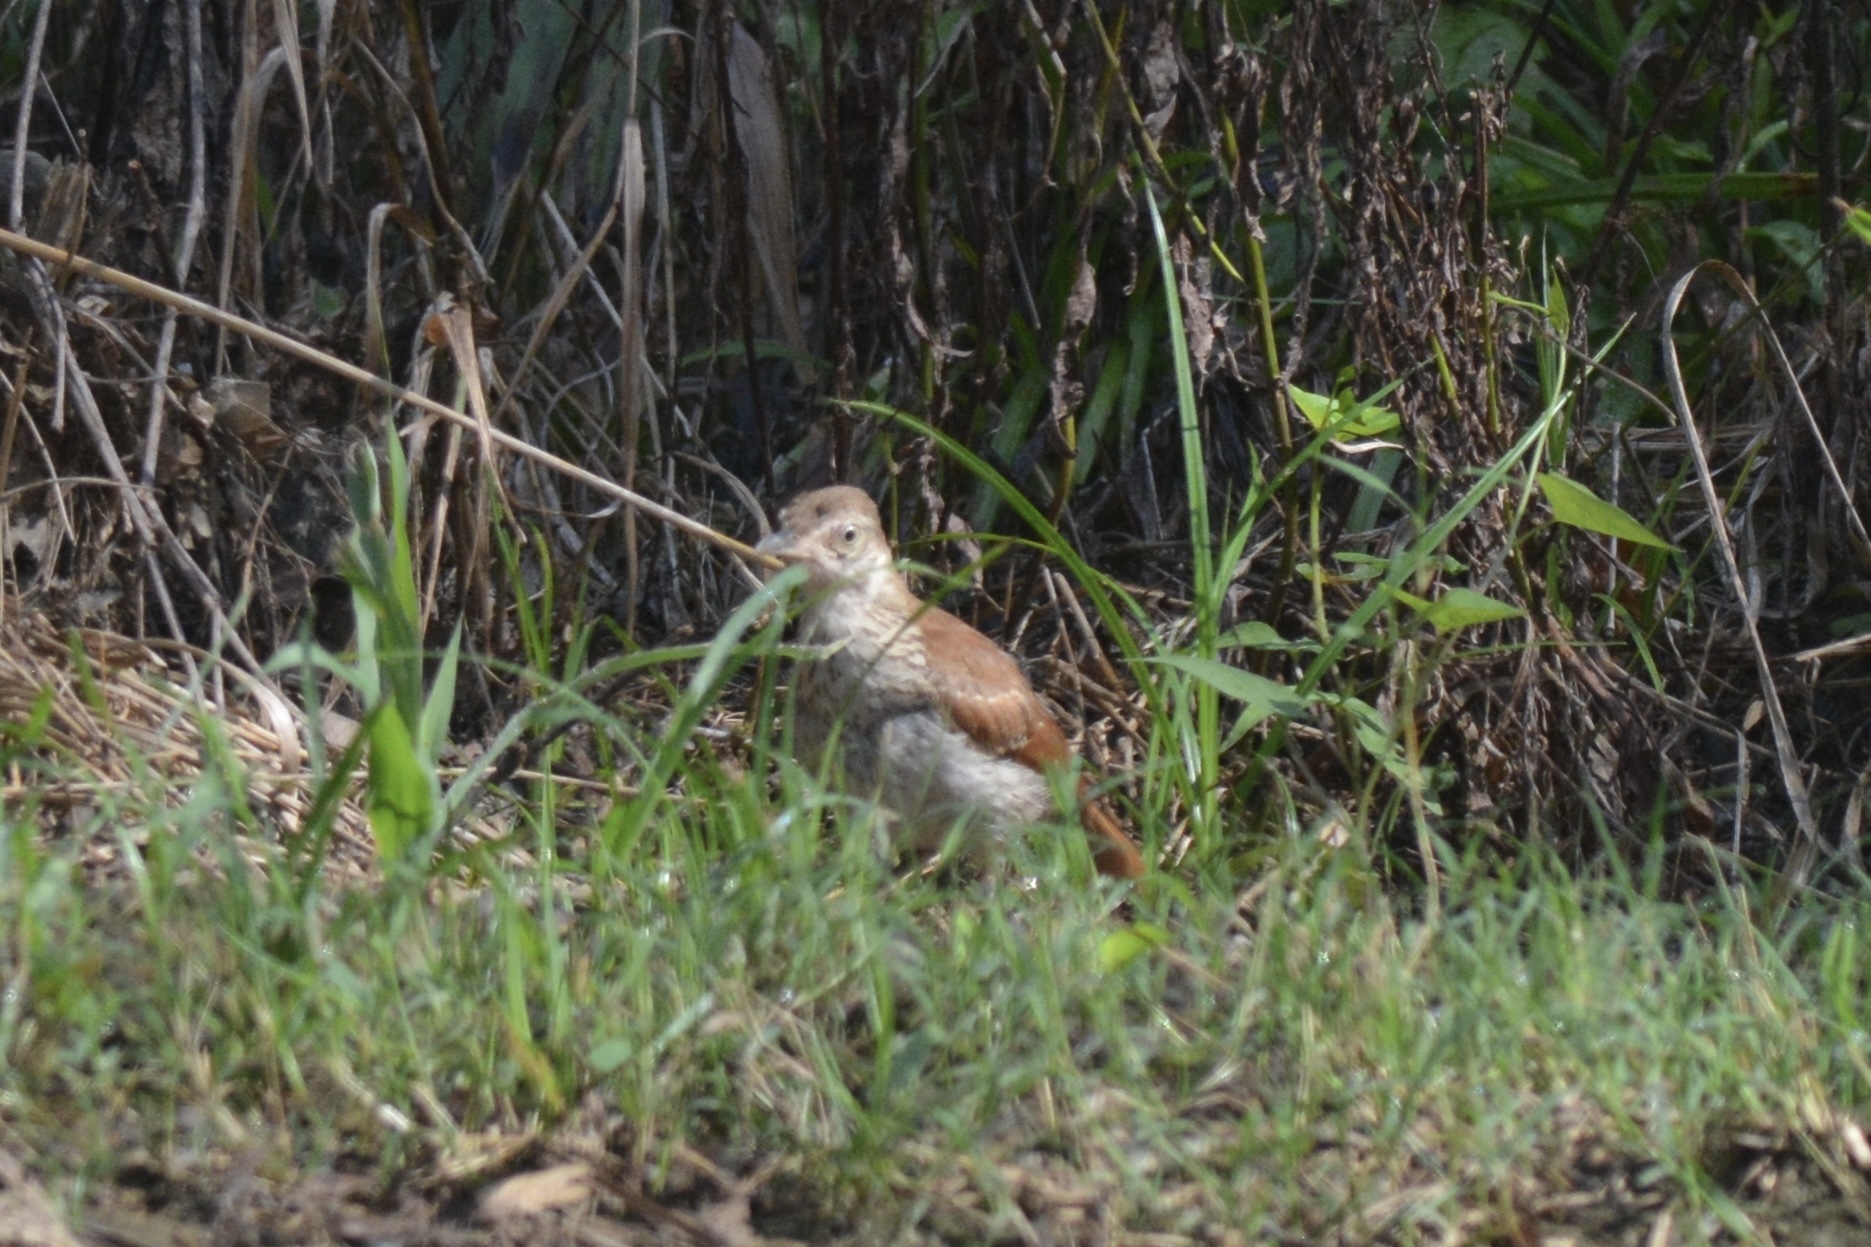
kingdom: Animalia
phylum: Chordata
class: Aves
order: Passeriformes
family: Mimidae
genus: Toxostoma
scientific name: Toxostoma rufum
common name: Brown thrasher
